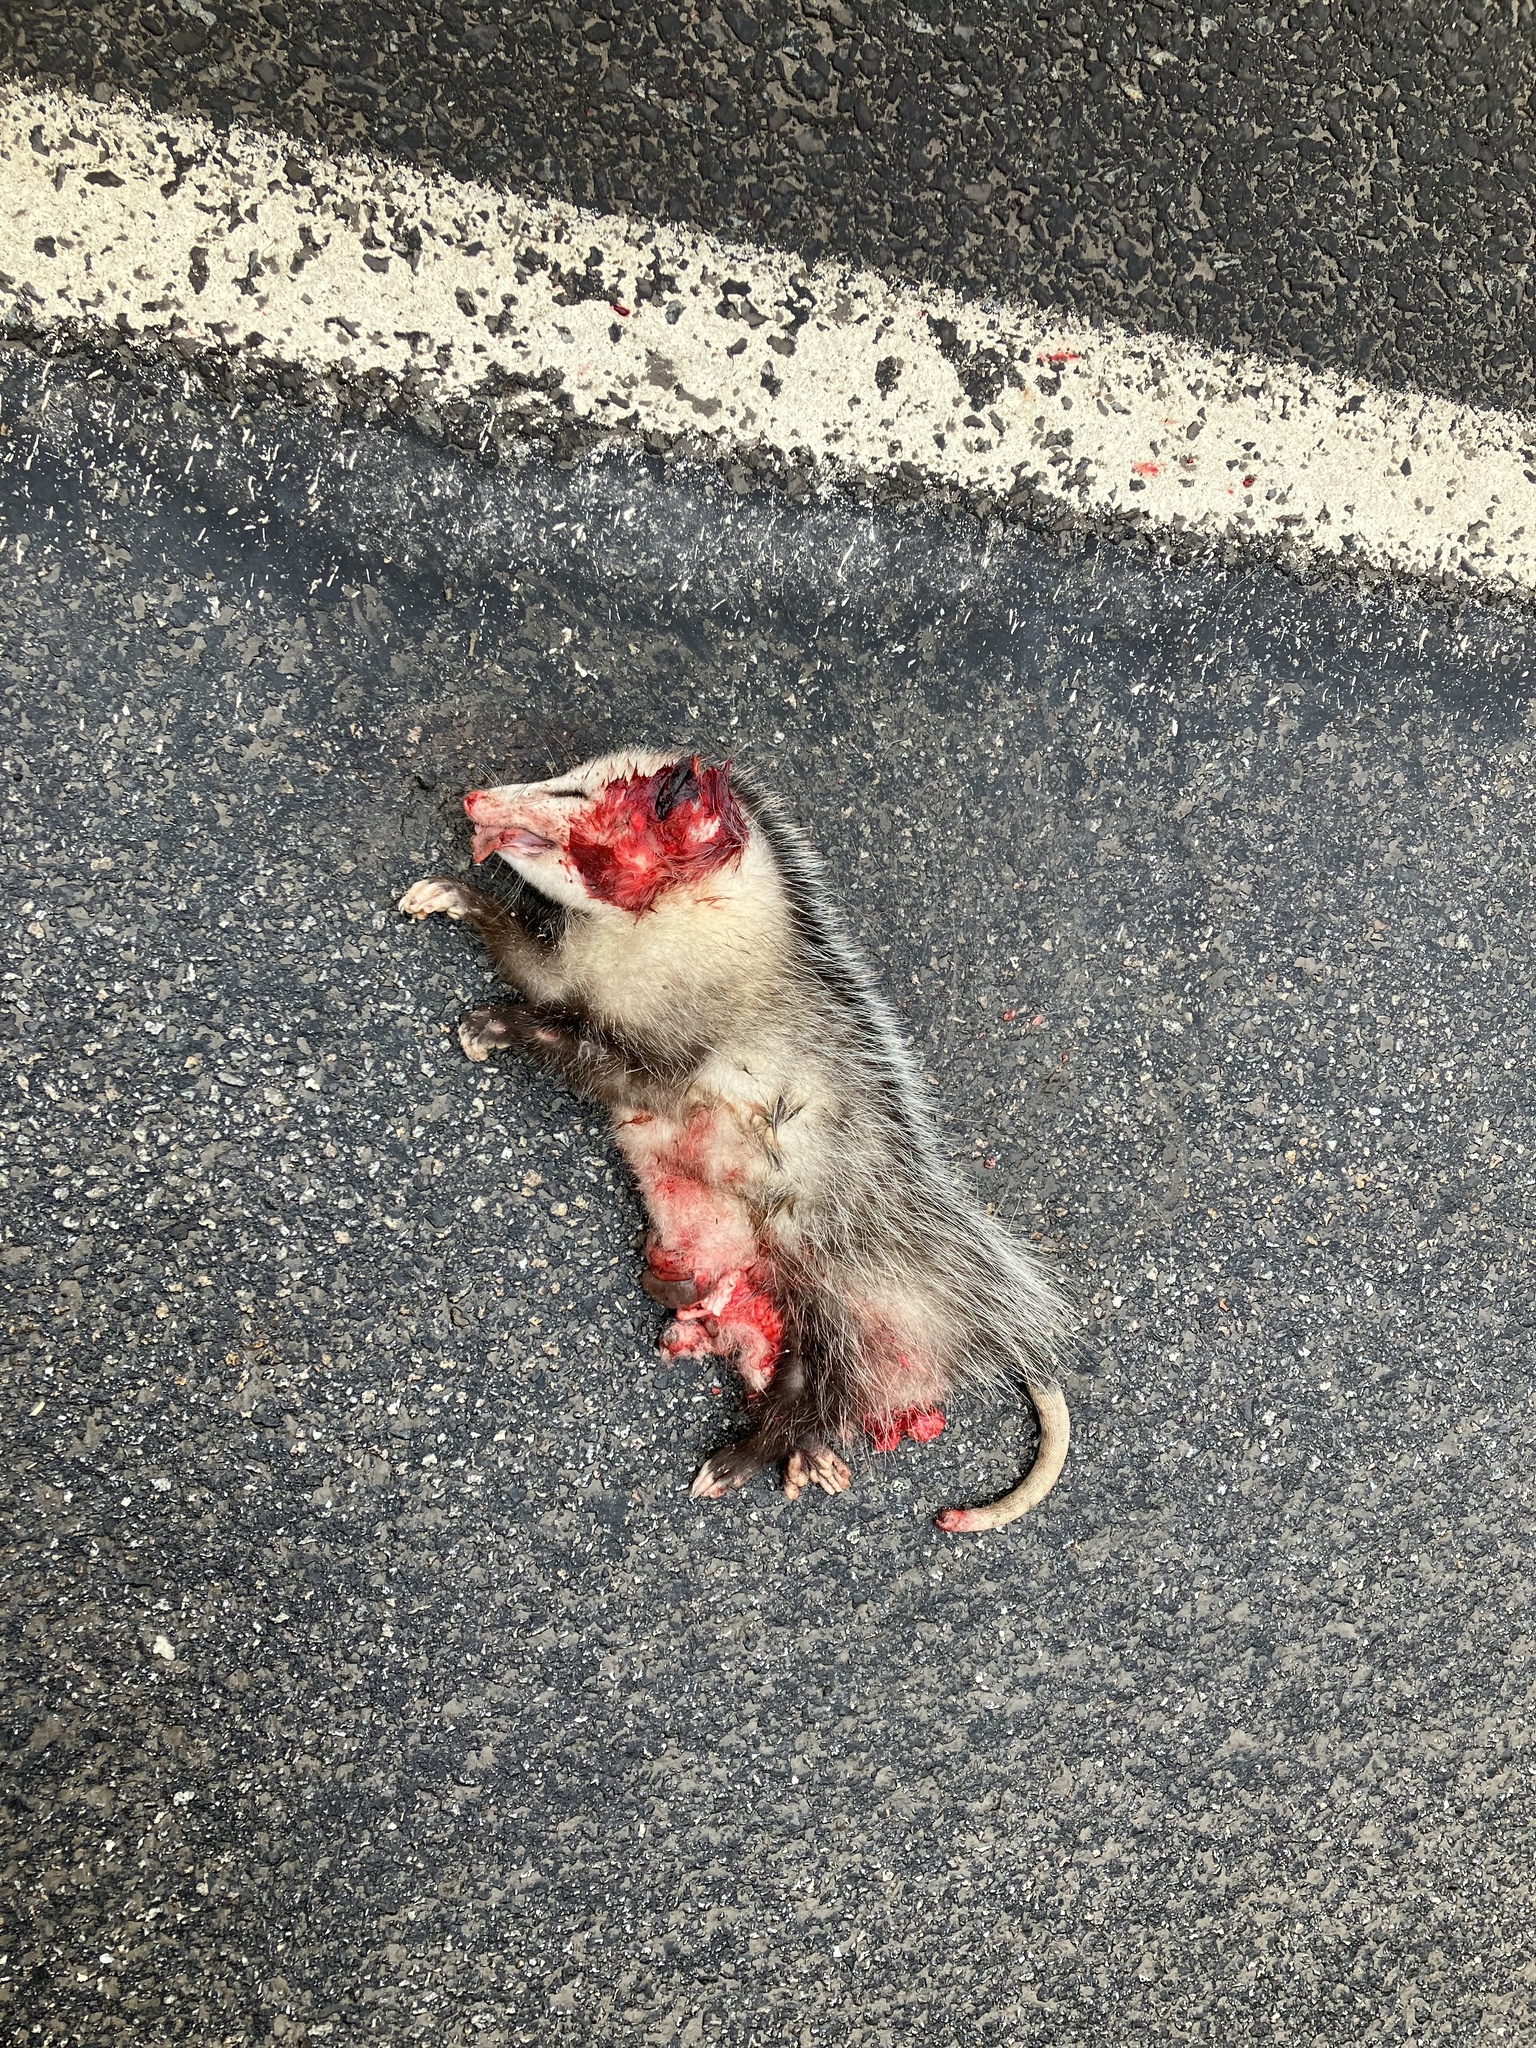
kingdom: Animalia
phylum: Chordata
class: Mammalia
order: Didelphimorphia
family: Didelphidae
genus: Didelphis
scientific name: Didelphis virginiana
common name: Virginia opossum
